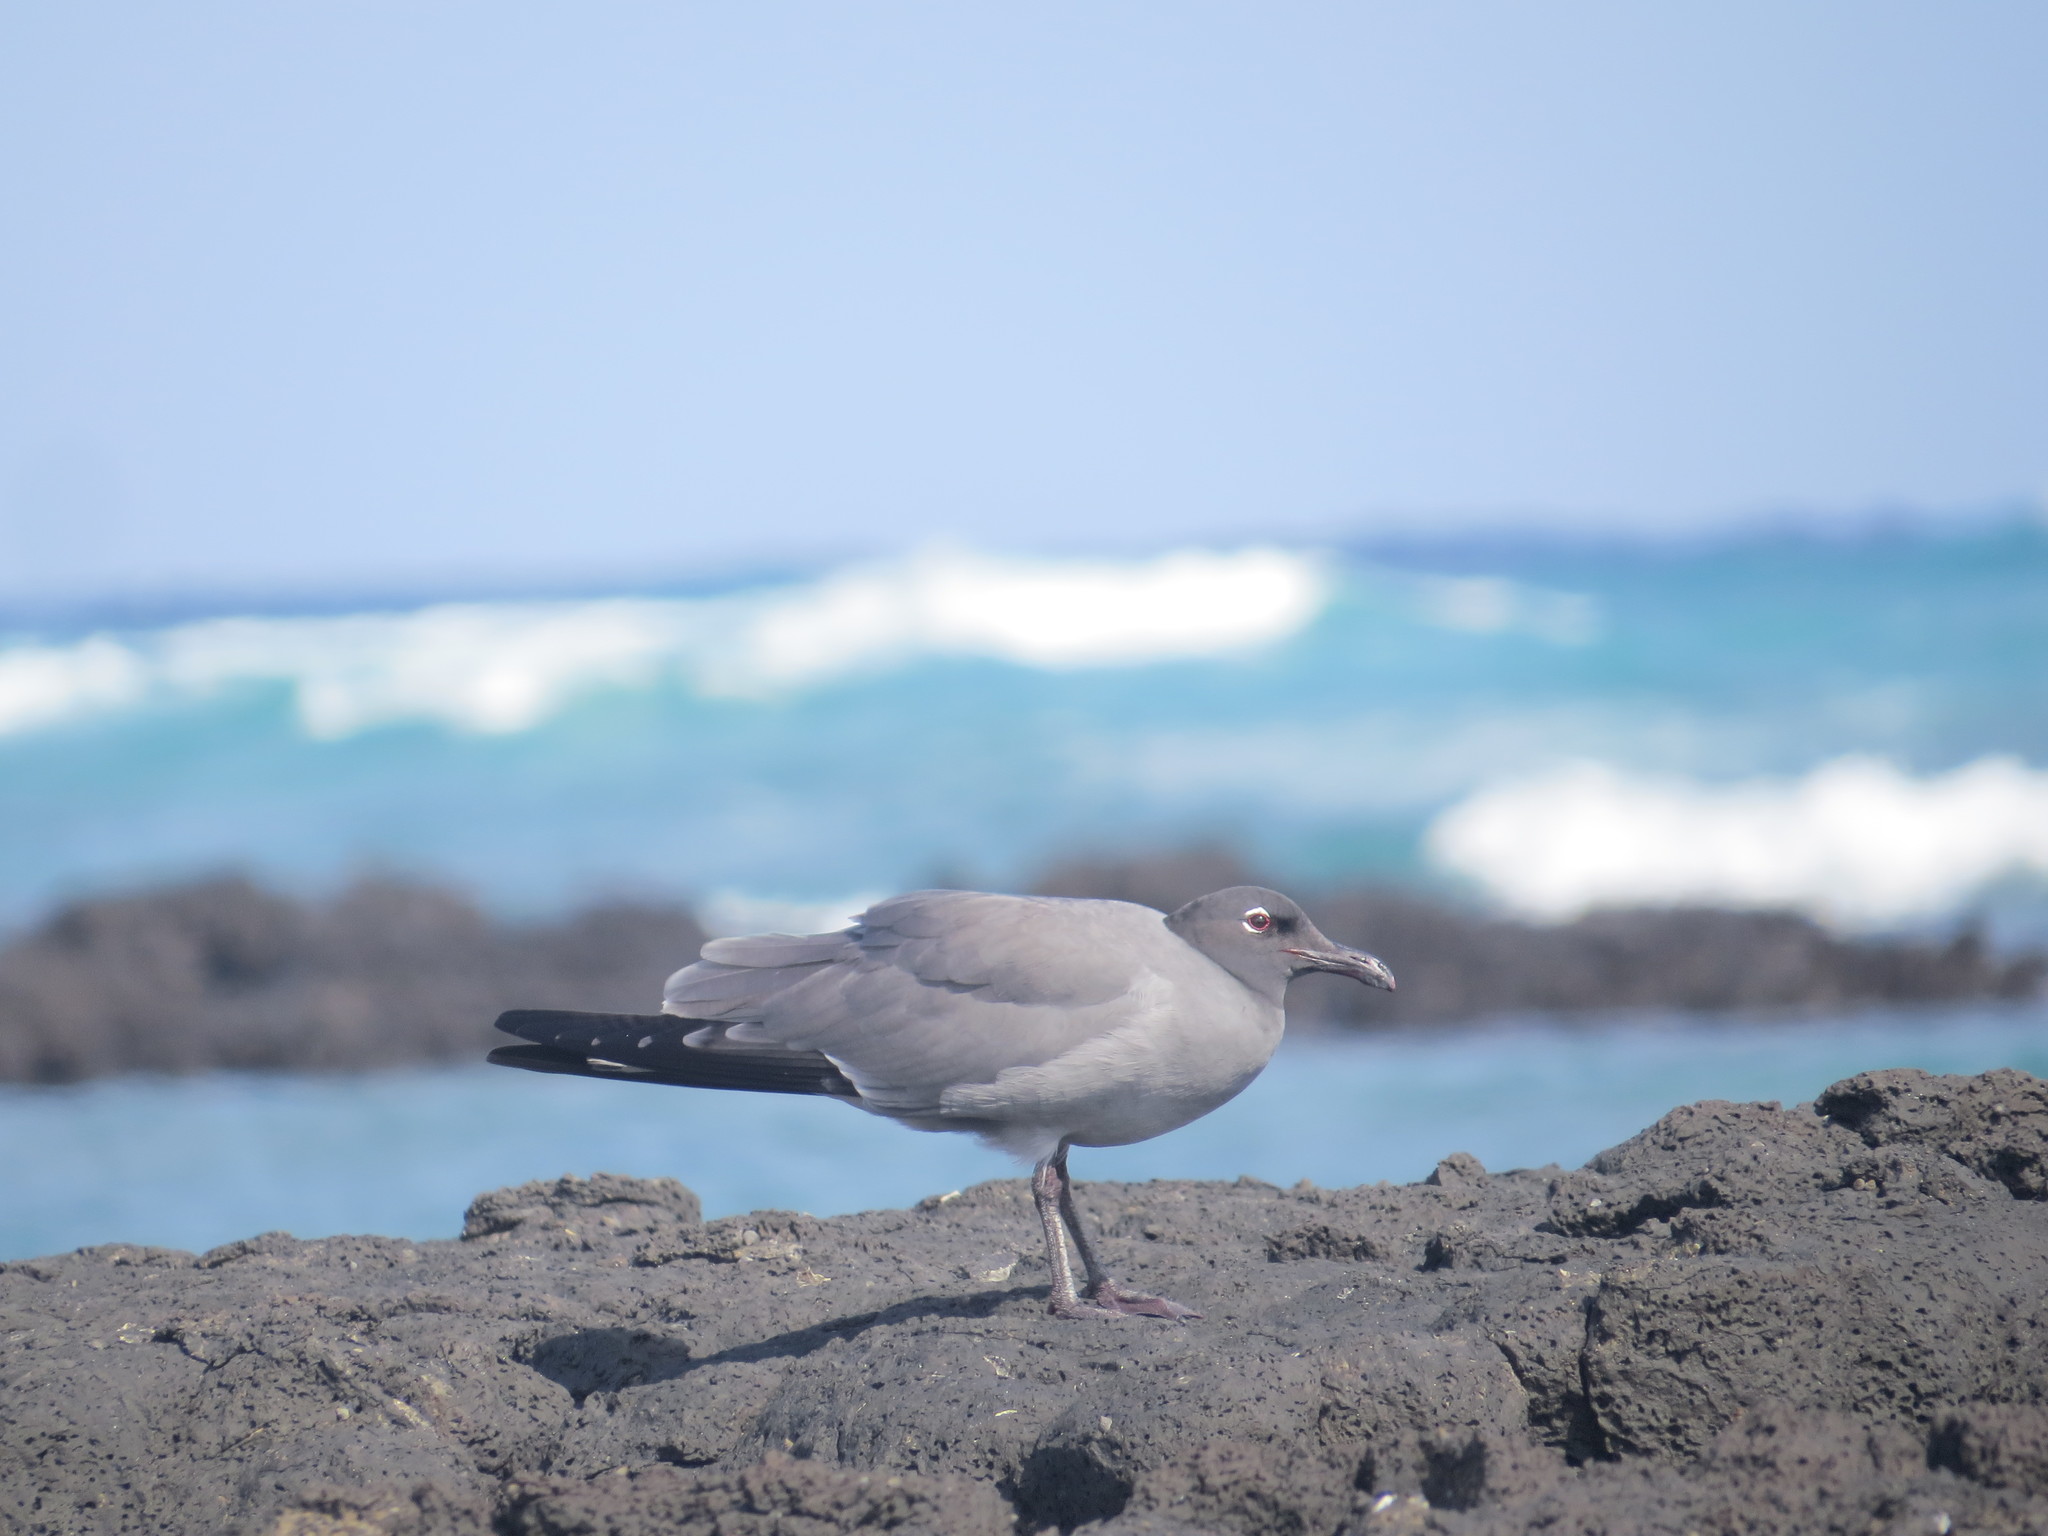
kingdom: Animalia
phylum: Chordata
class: Aves
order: Charadriiformes
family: Laridae
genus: Leucophaeus
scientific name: Leucophaeus fuliginosus
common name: Lava gull
